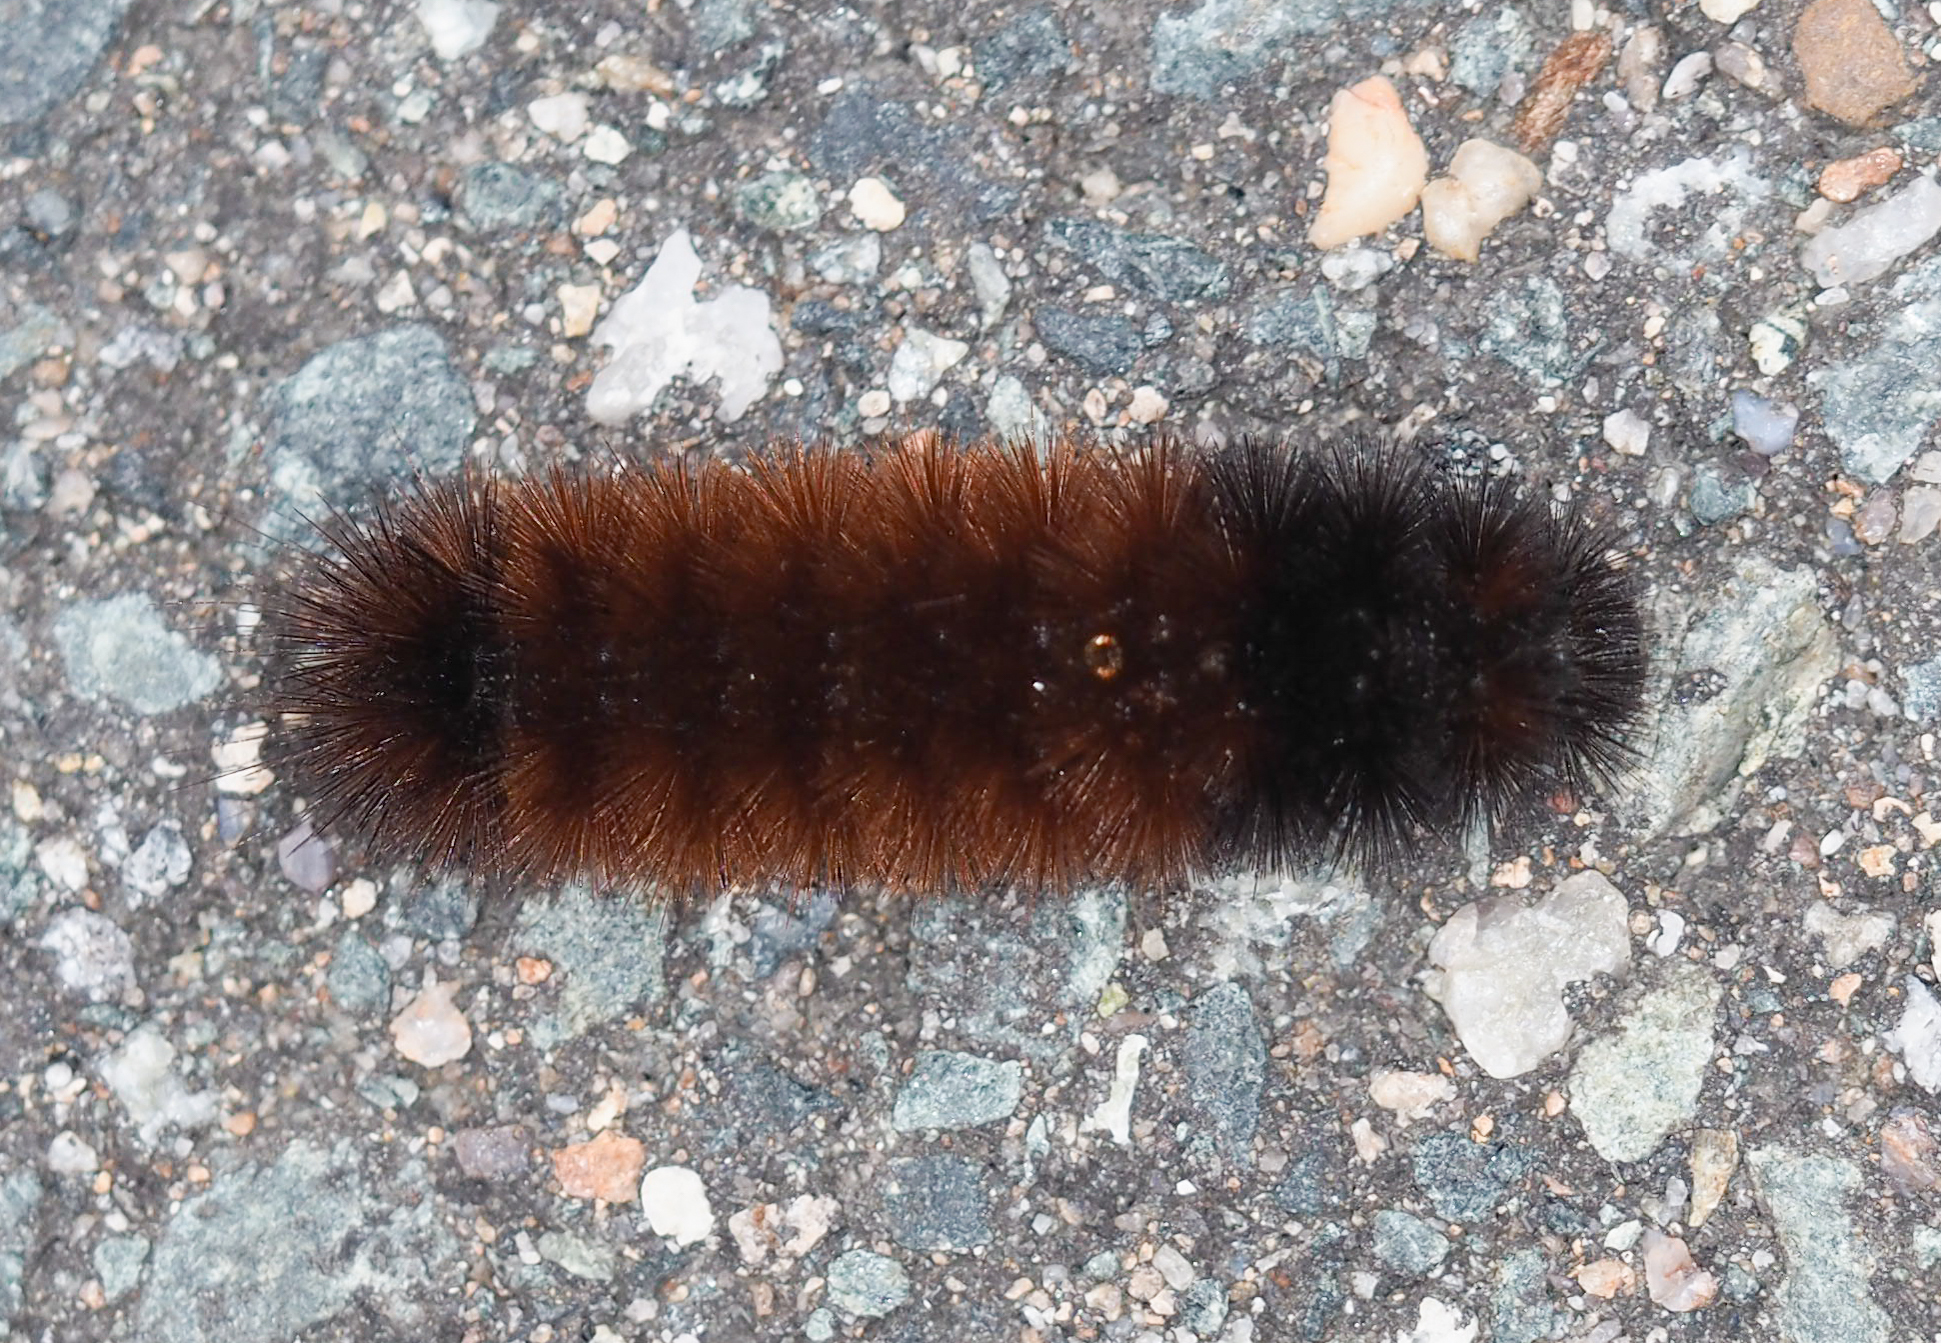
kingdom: Animalia
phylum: Arthropoda
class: Insecta
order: Lepidoptera
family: Erebidae
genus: Pyrrharctia
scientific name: Pyrrharctia isabella
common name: Isabella tiger moth
